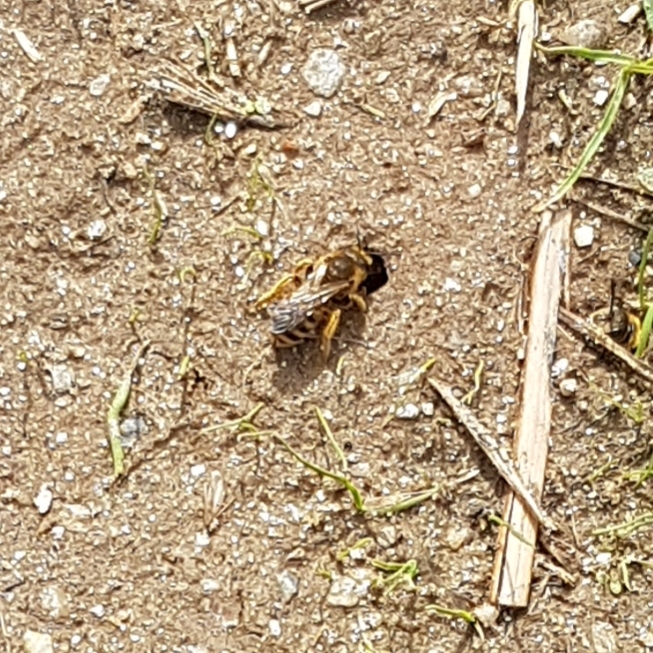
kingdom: Animalia
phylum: Arthropoda
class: Insecta
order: Hymenoptera
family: Halictidae
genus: Halictus
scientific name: Halictus scabiosae
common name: Great banded furrow bee
